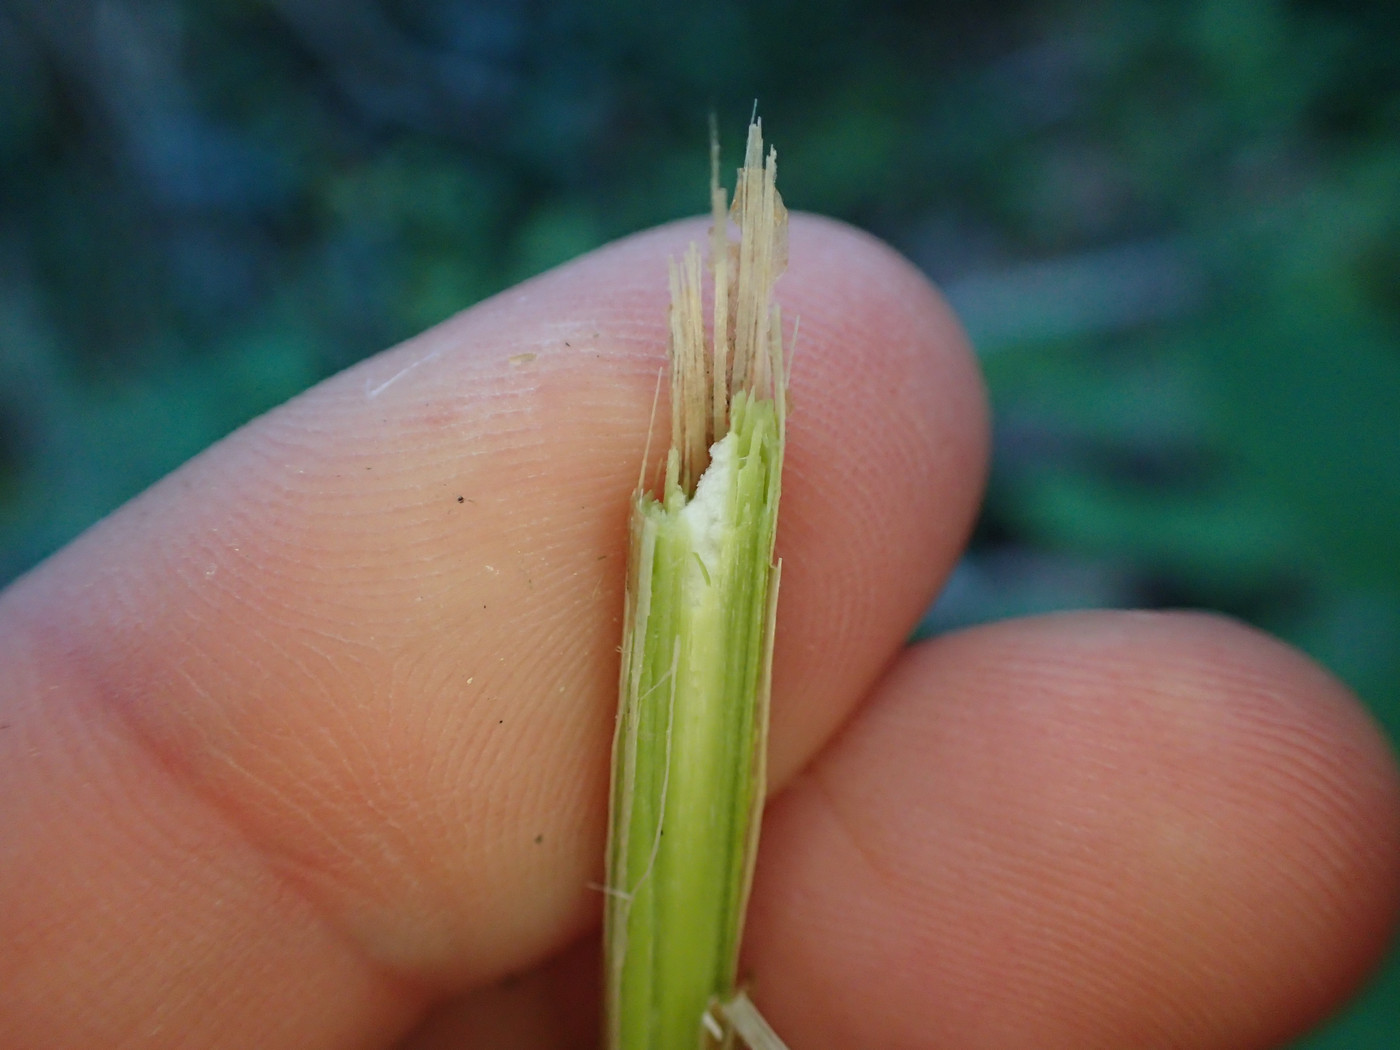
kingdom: Animalia
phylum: Arthropoda
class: Insecta
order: Diptera
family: Agromyzidae
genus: Aulagromyza
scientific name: Aulagromyza cornigera
